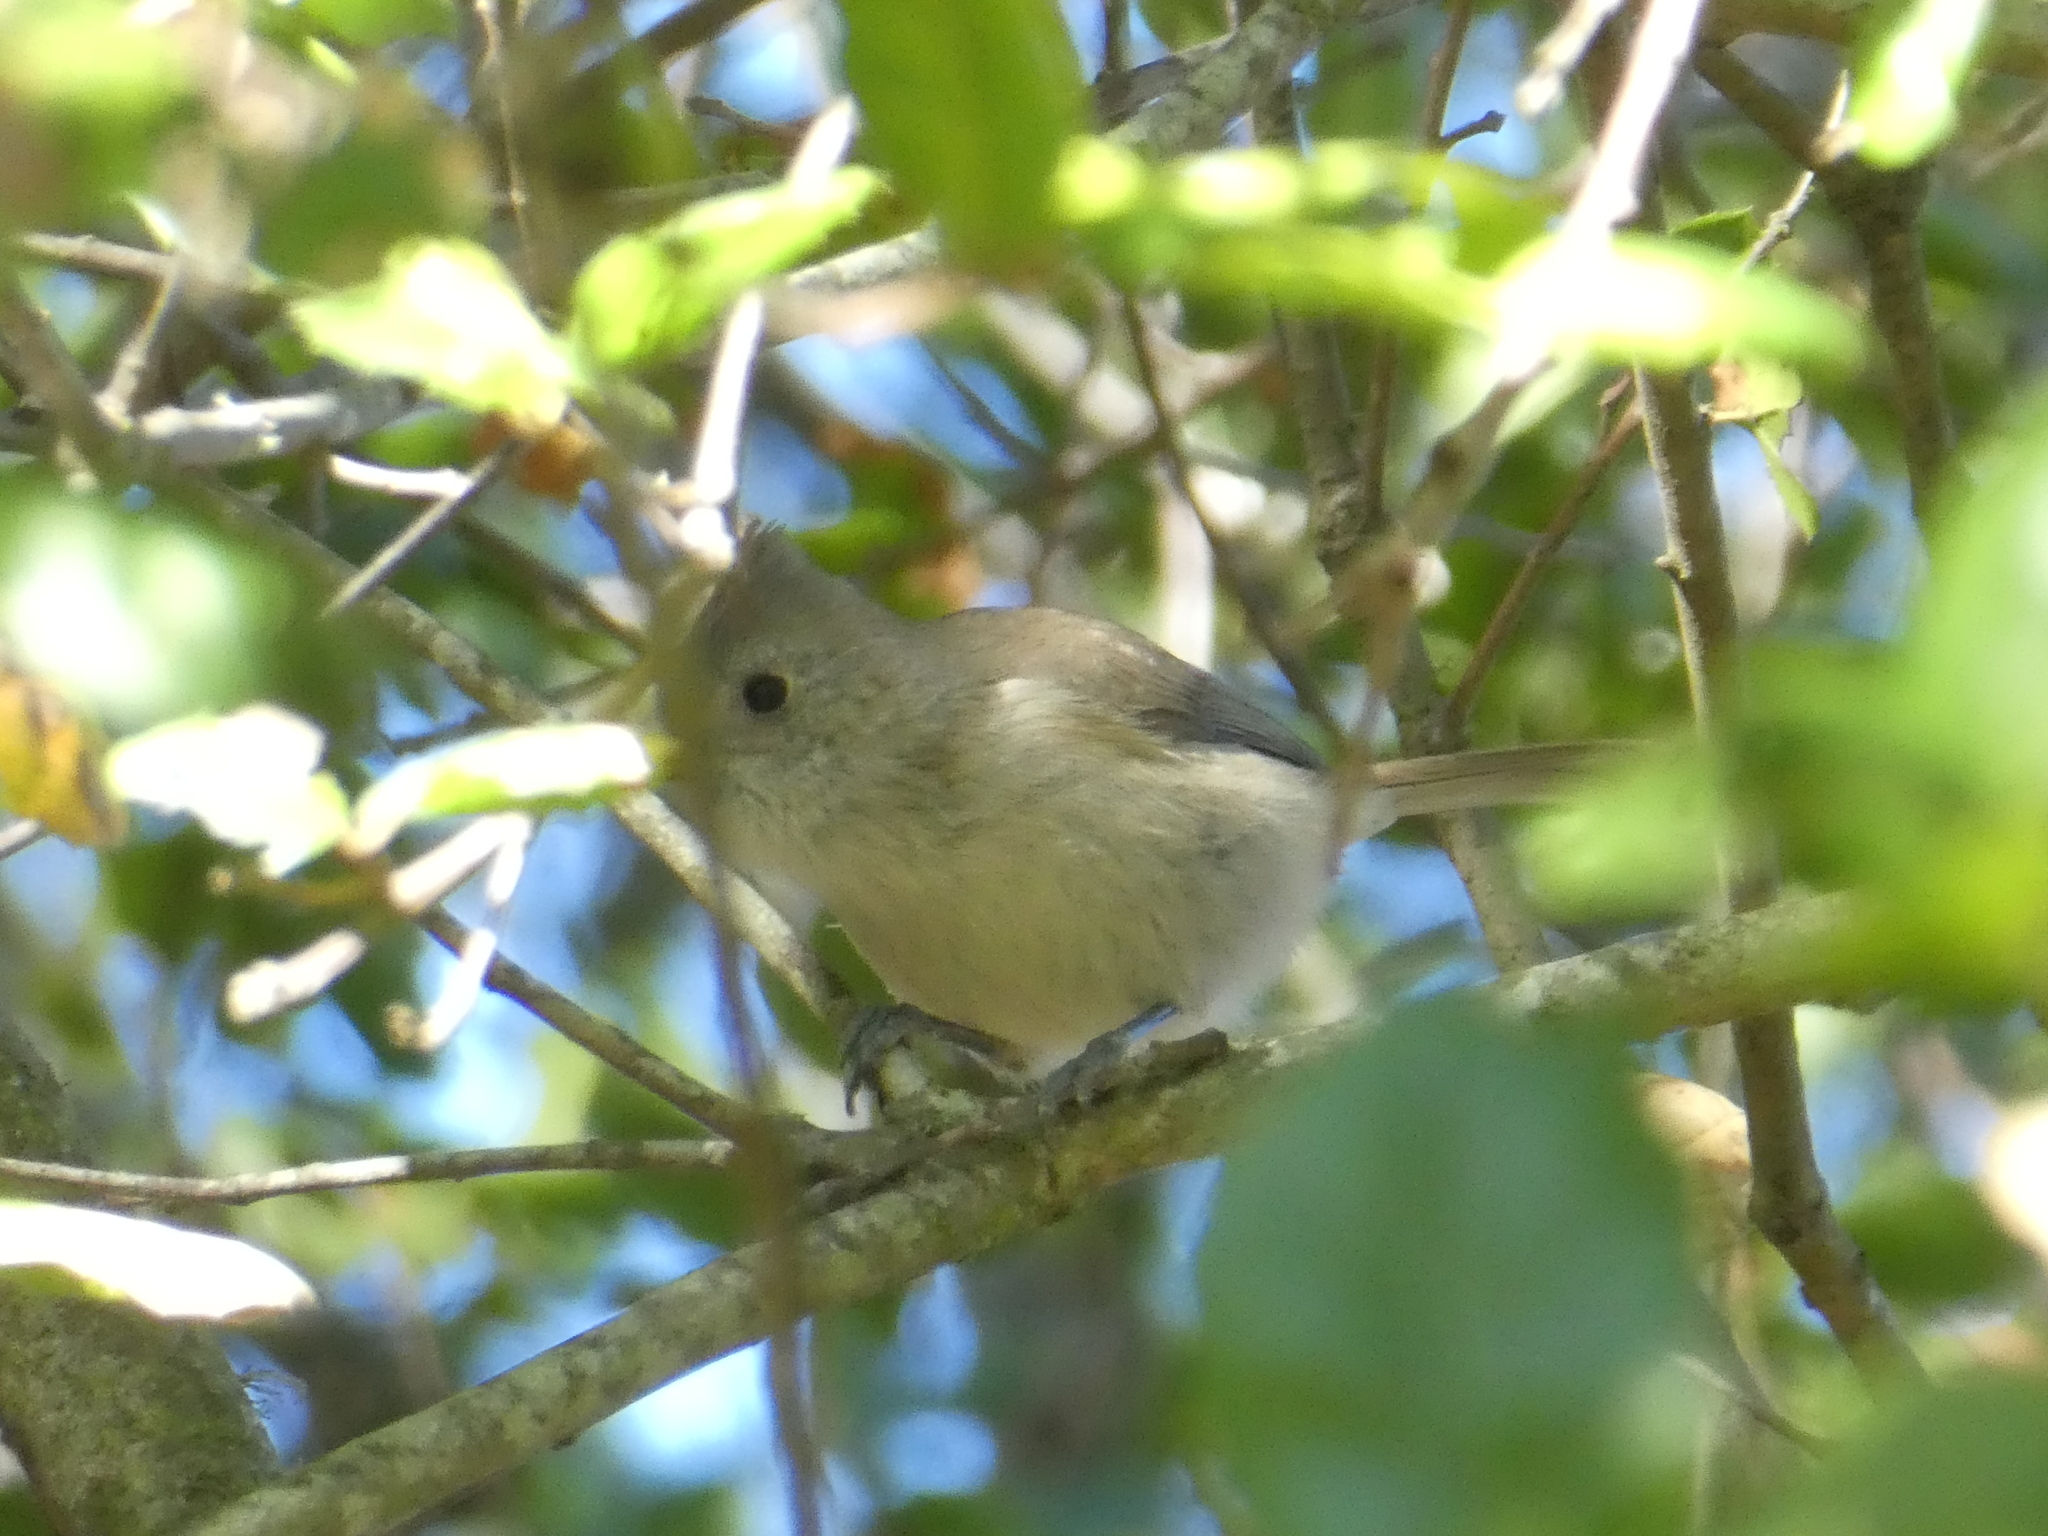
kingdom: Animalia
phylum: Chordata
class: Aves
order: Passeriformes
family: Paridae
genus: Baeolophus
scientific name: Baeolophus inornatus
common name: Oak titmouse
